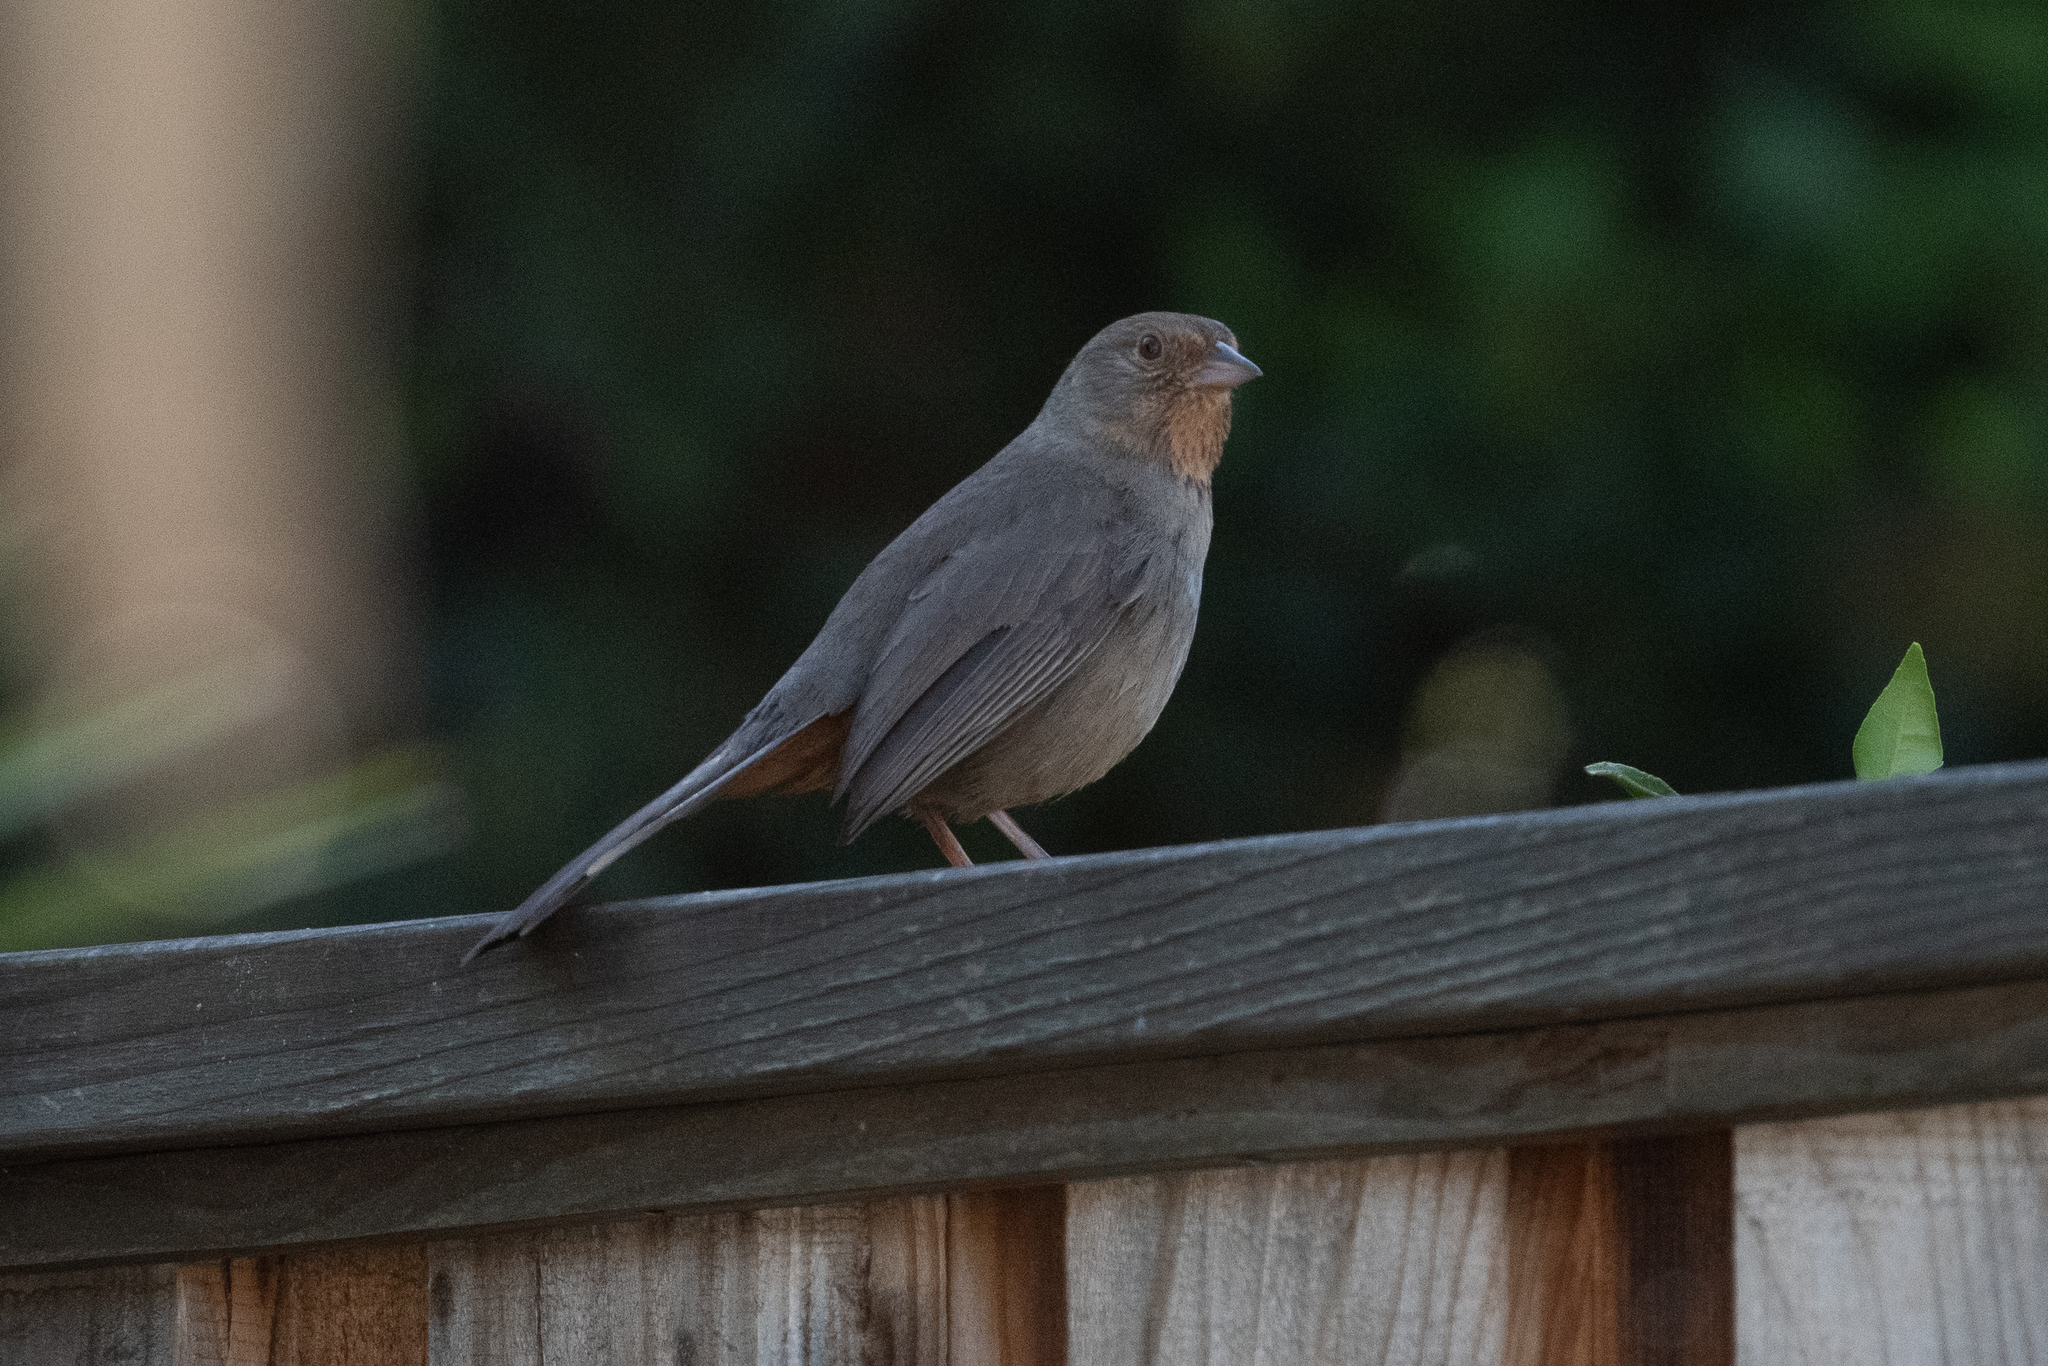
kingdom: Animalia
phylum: Chordata
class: Aves
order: Passeriformes
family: Passerellidae
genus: Melozone
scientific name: Melozone crissalis
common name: California towhee
